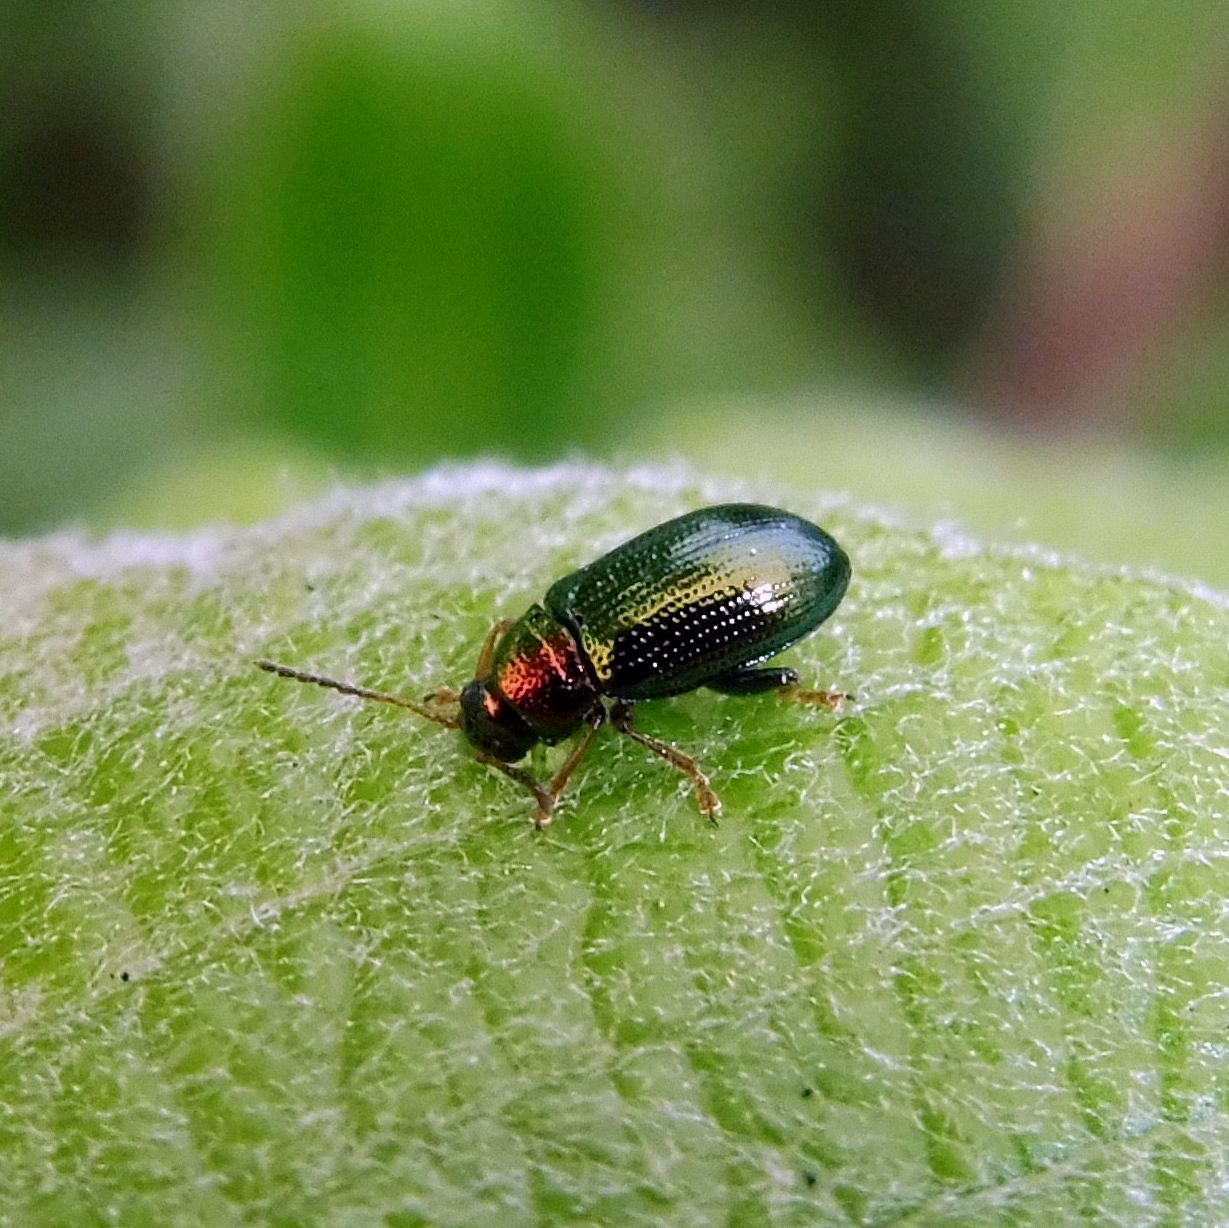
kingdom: Animalia
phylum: Arthropoda
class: Insecta
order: Coleoptera
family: Chrysomelidae
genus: Crepidodera
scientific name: Crepidodera aurata
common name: Willow flea beetle
